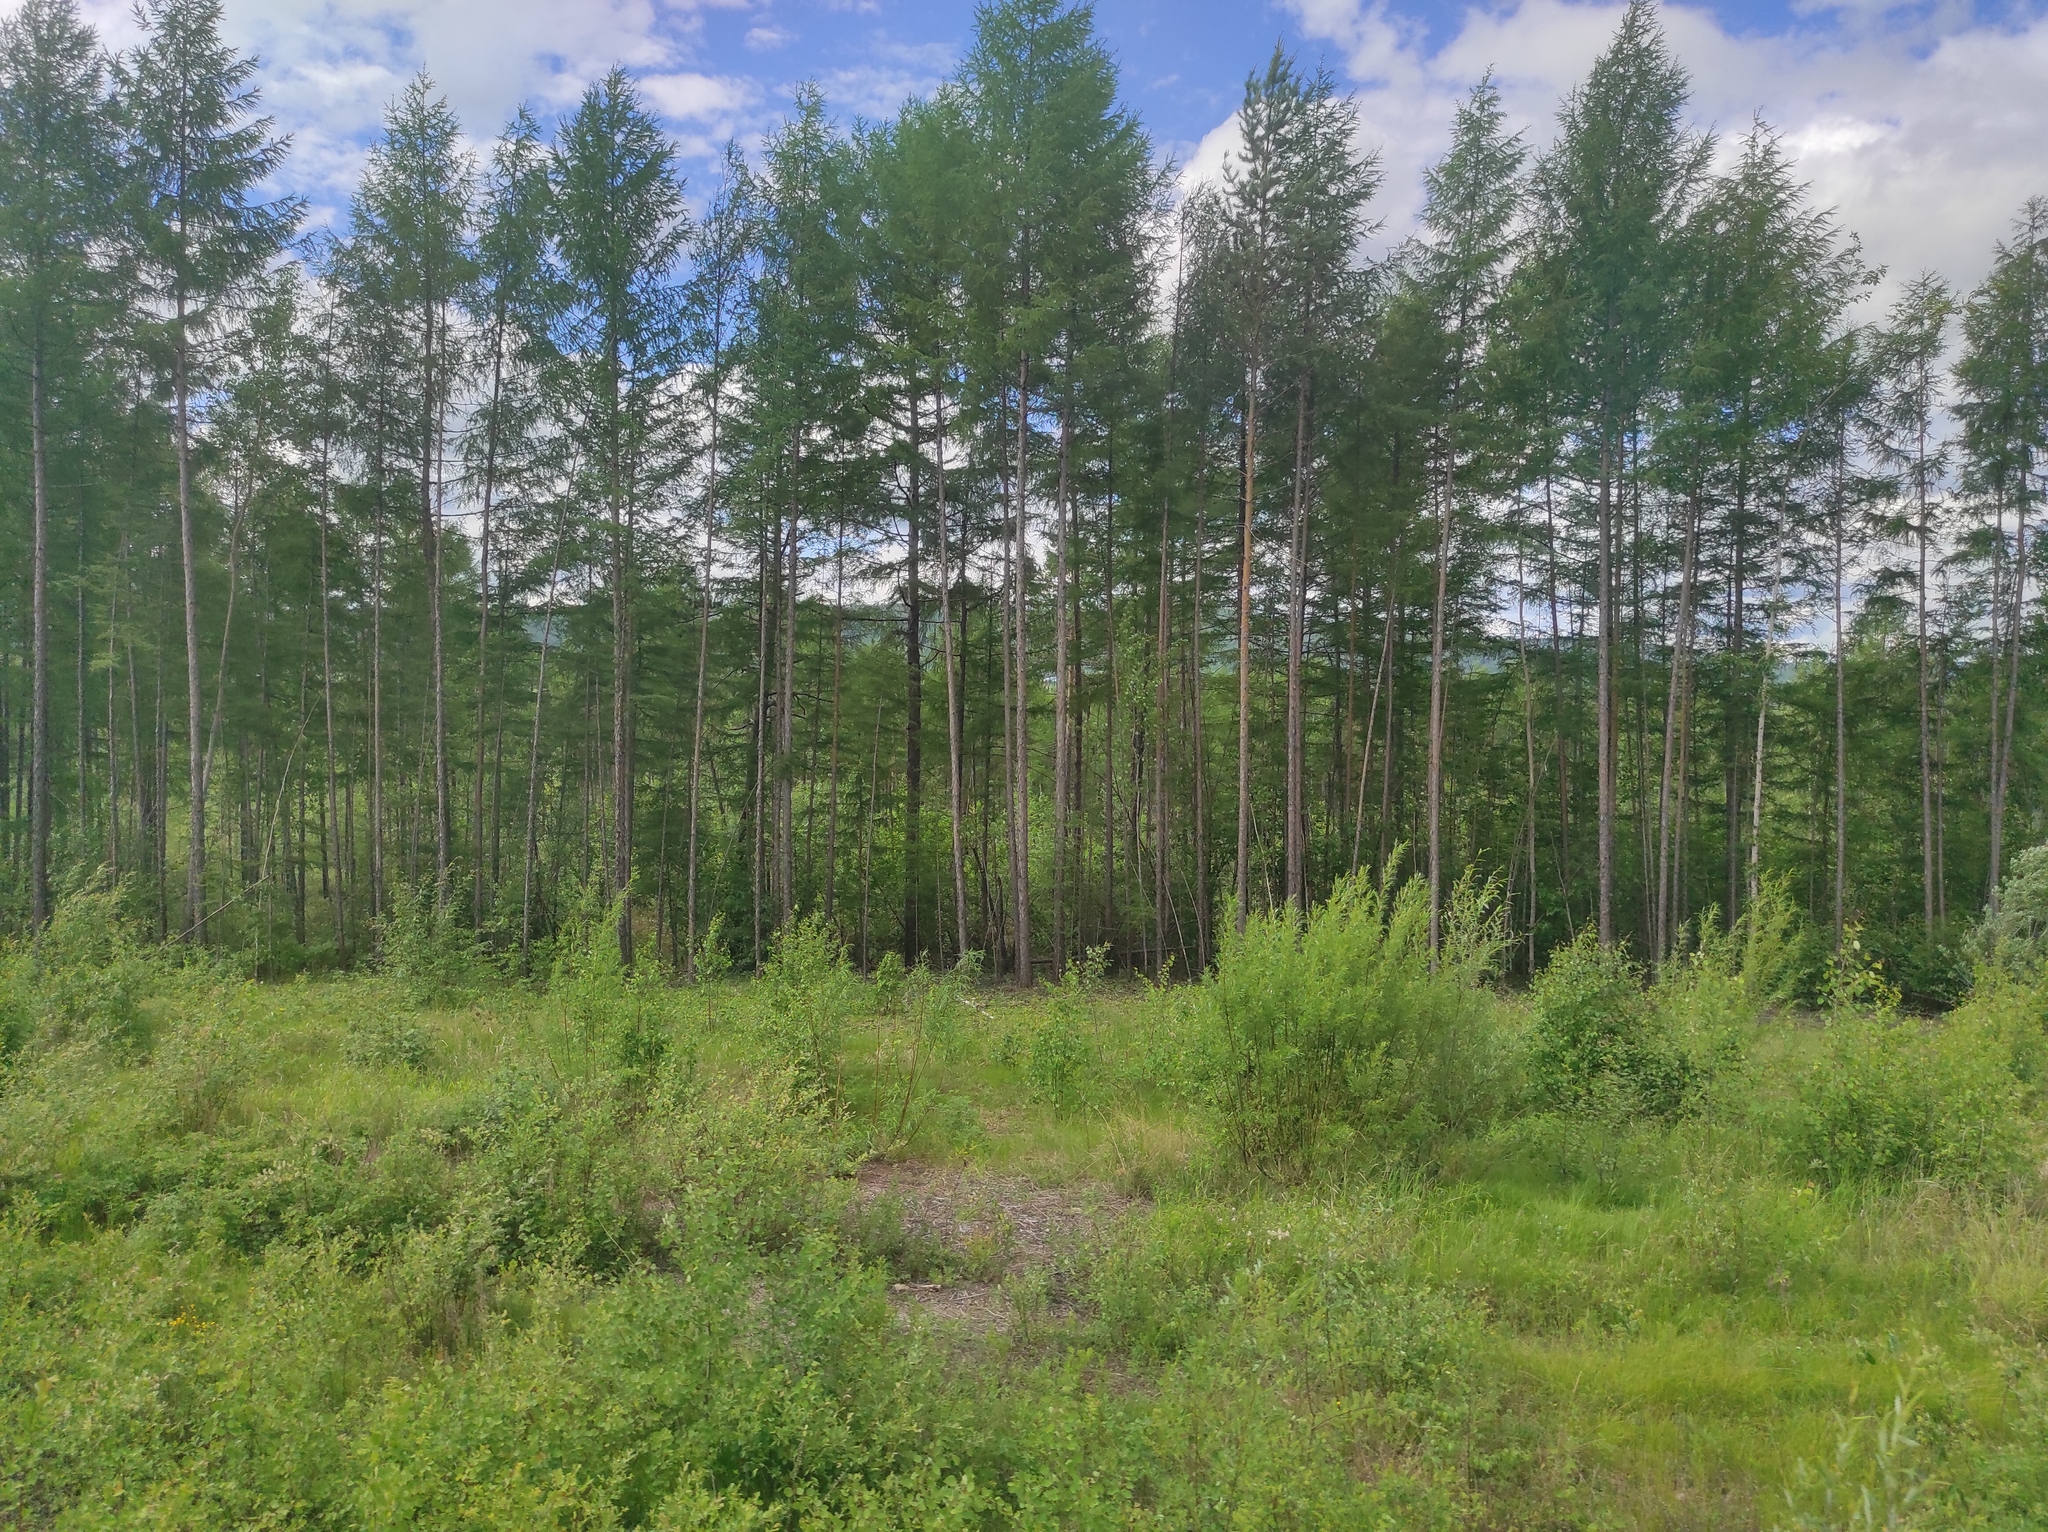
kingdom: Plantae
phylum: Tracheophyta
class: Pinopsida
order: Pinales
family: Pinaceae
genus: Pinus
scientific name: Pinus sylvestris
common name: Scots pine
